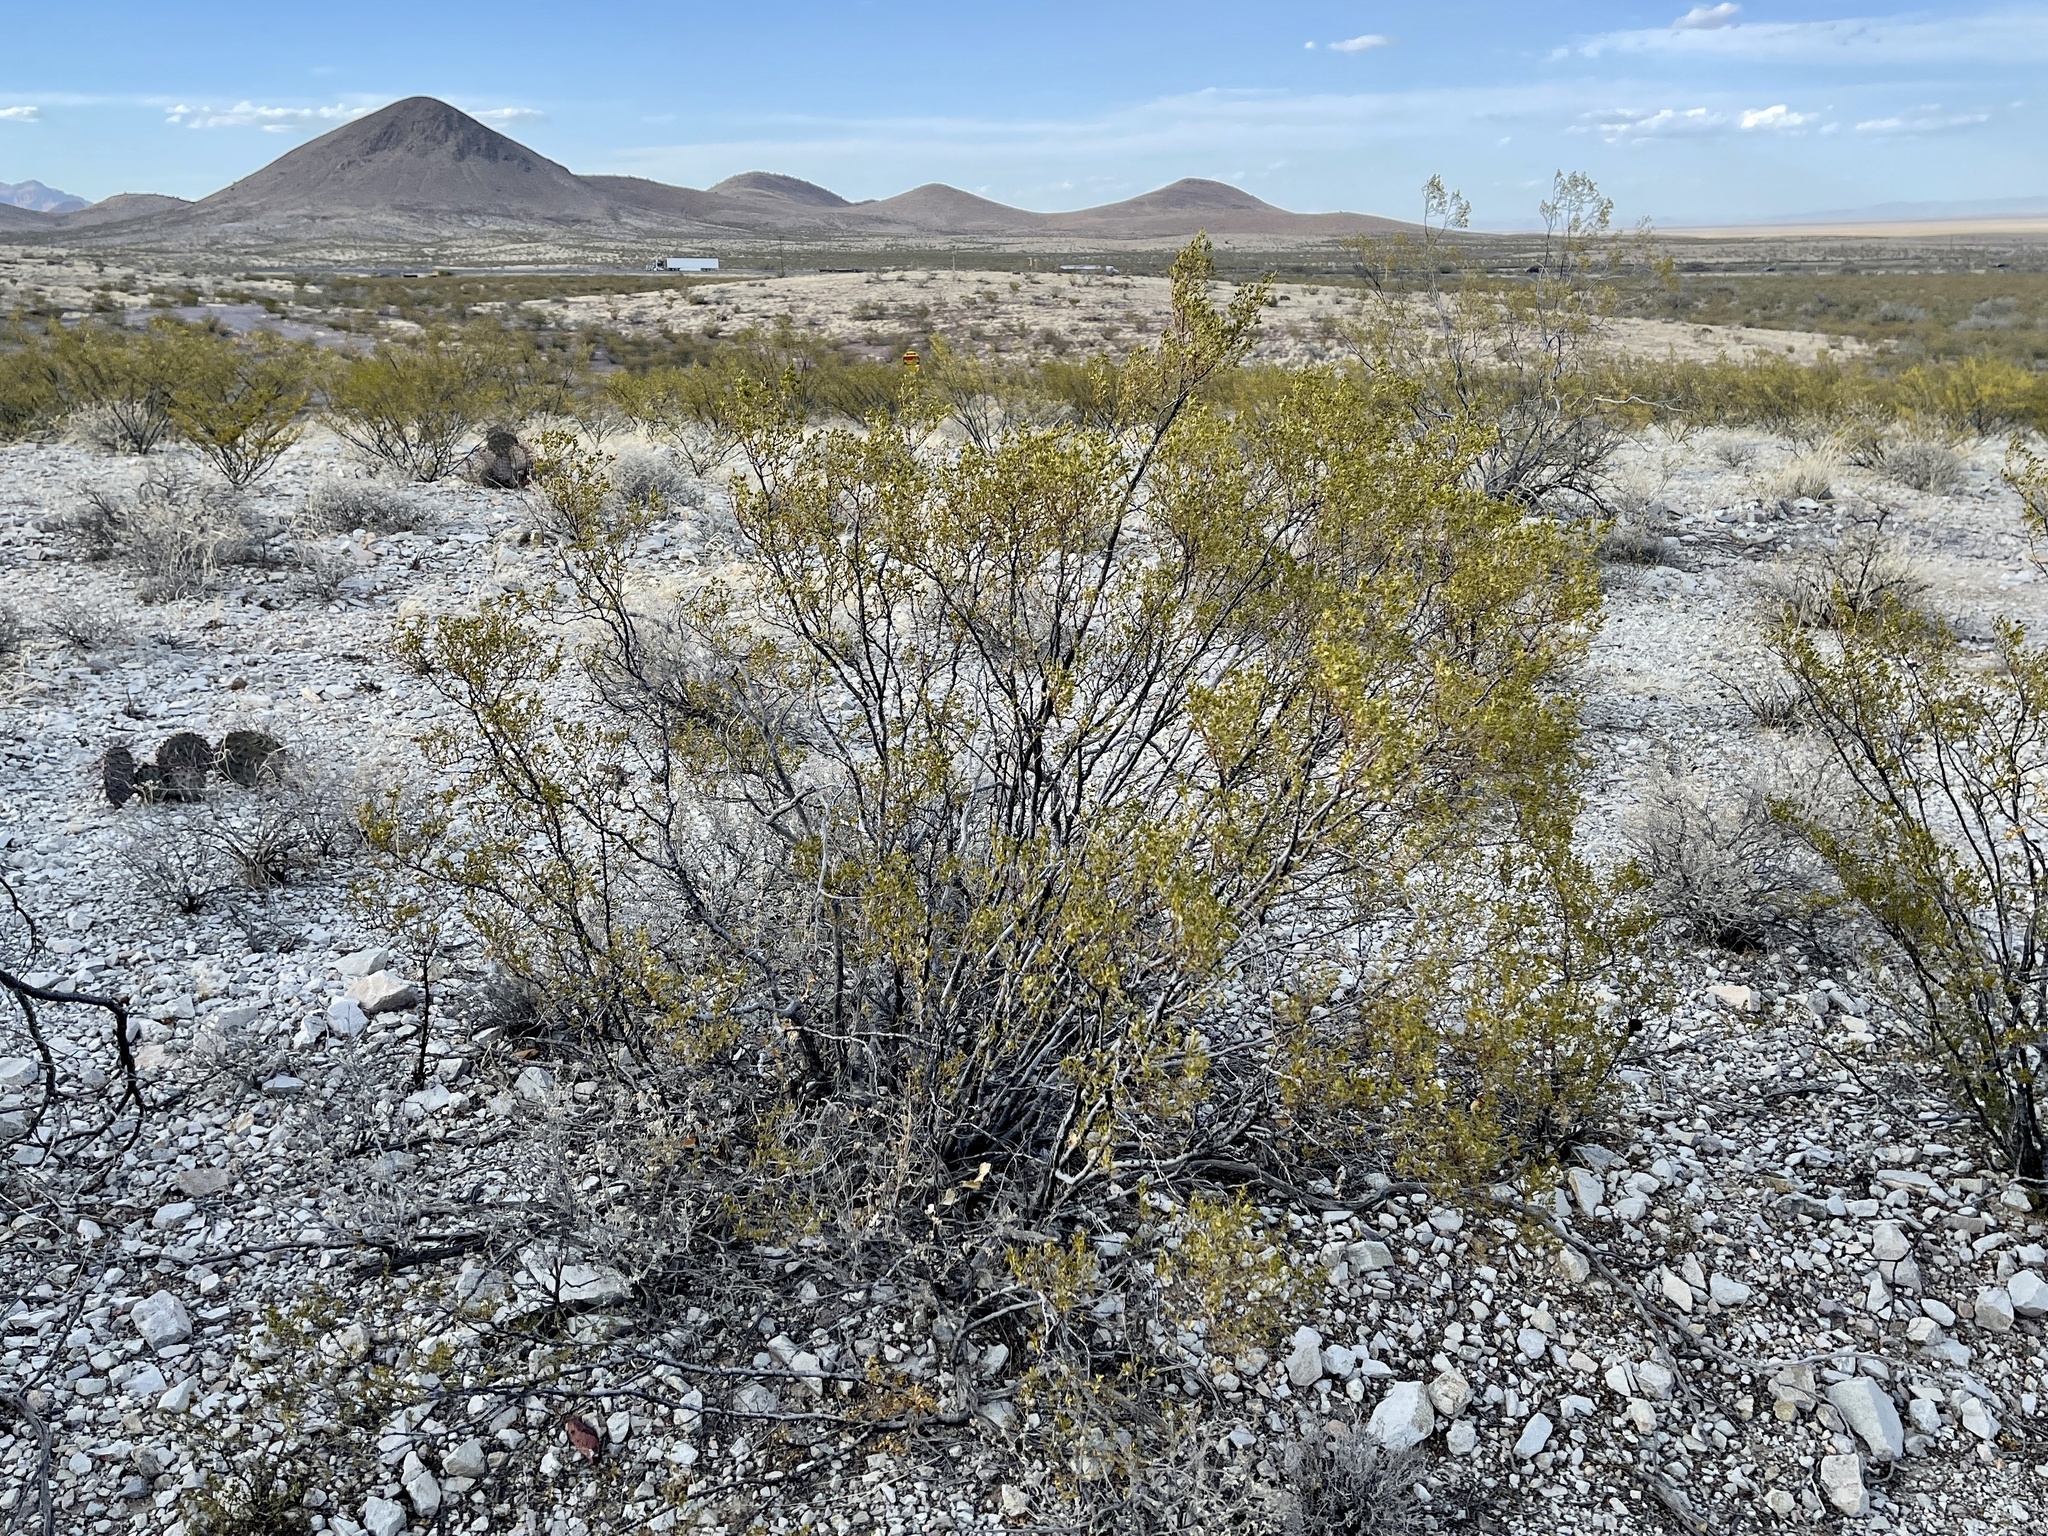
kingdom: Plantae
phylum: Tracheophyta
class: Magnoliopsida
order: Zygophyllales
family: Zygophyllaceae
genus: Larrea
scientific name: Larrea tridentata
